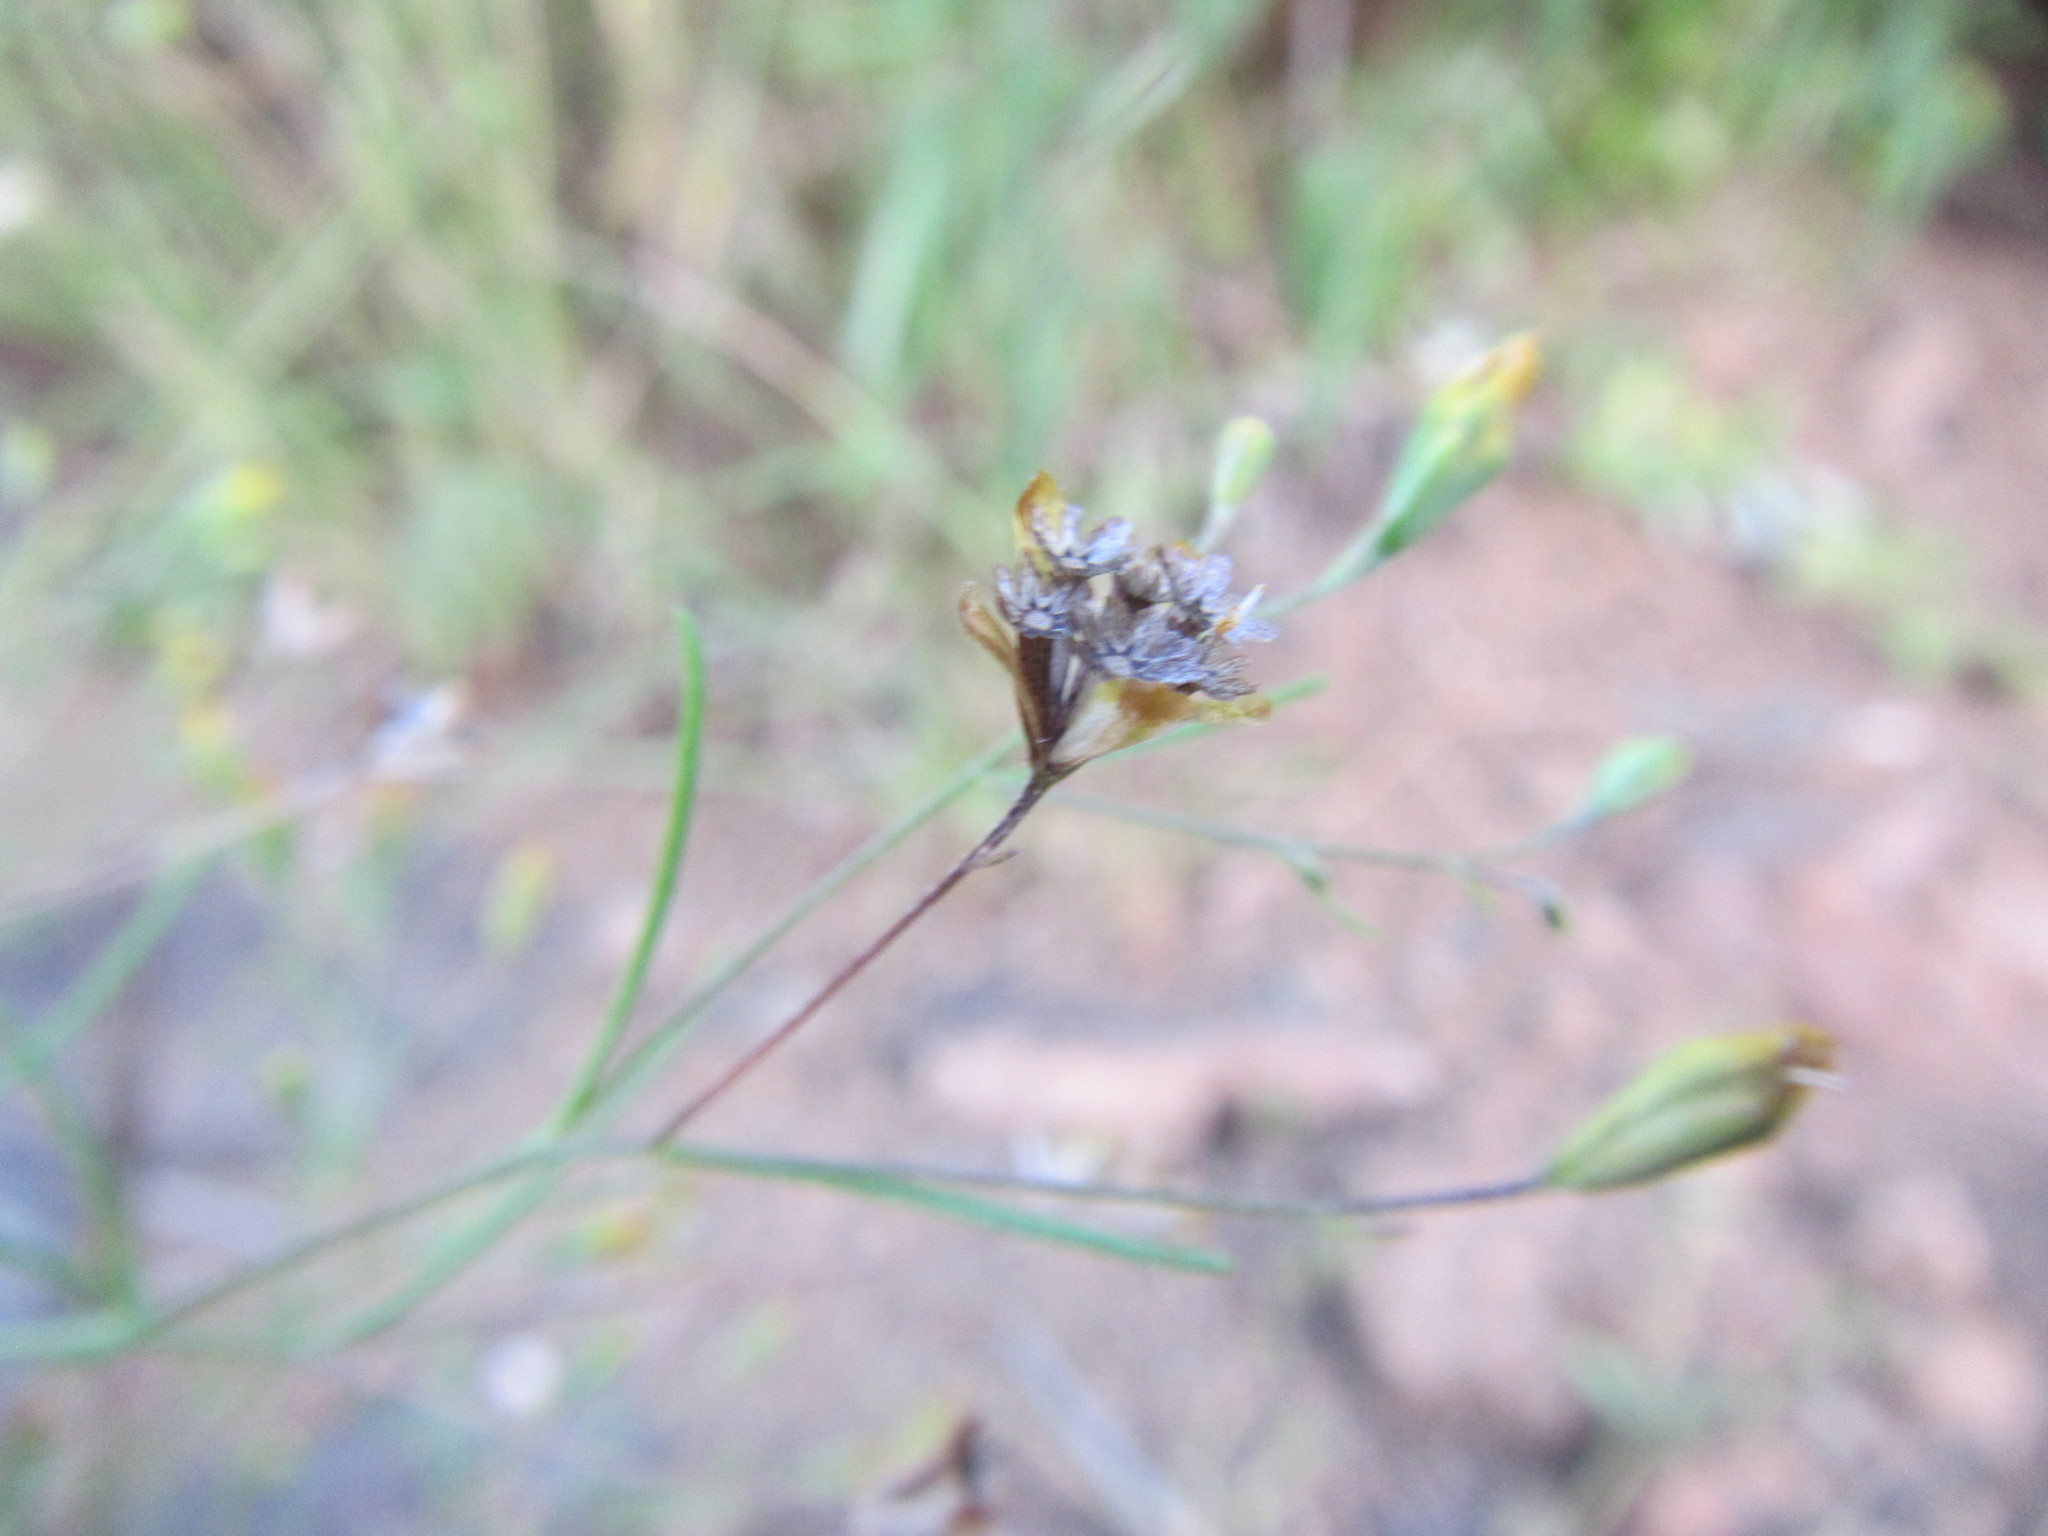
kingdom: Plantae
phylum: Tracheophyta
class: Magnoliopsida
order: Asterales
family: Asteraceae
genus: Schkuhria
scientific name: Schkuhria pinnata
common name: Dwarf marigold
